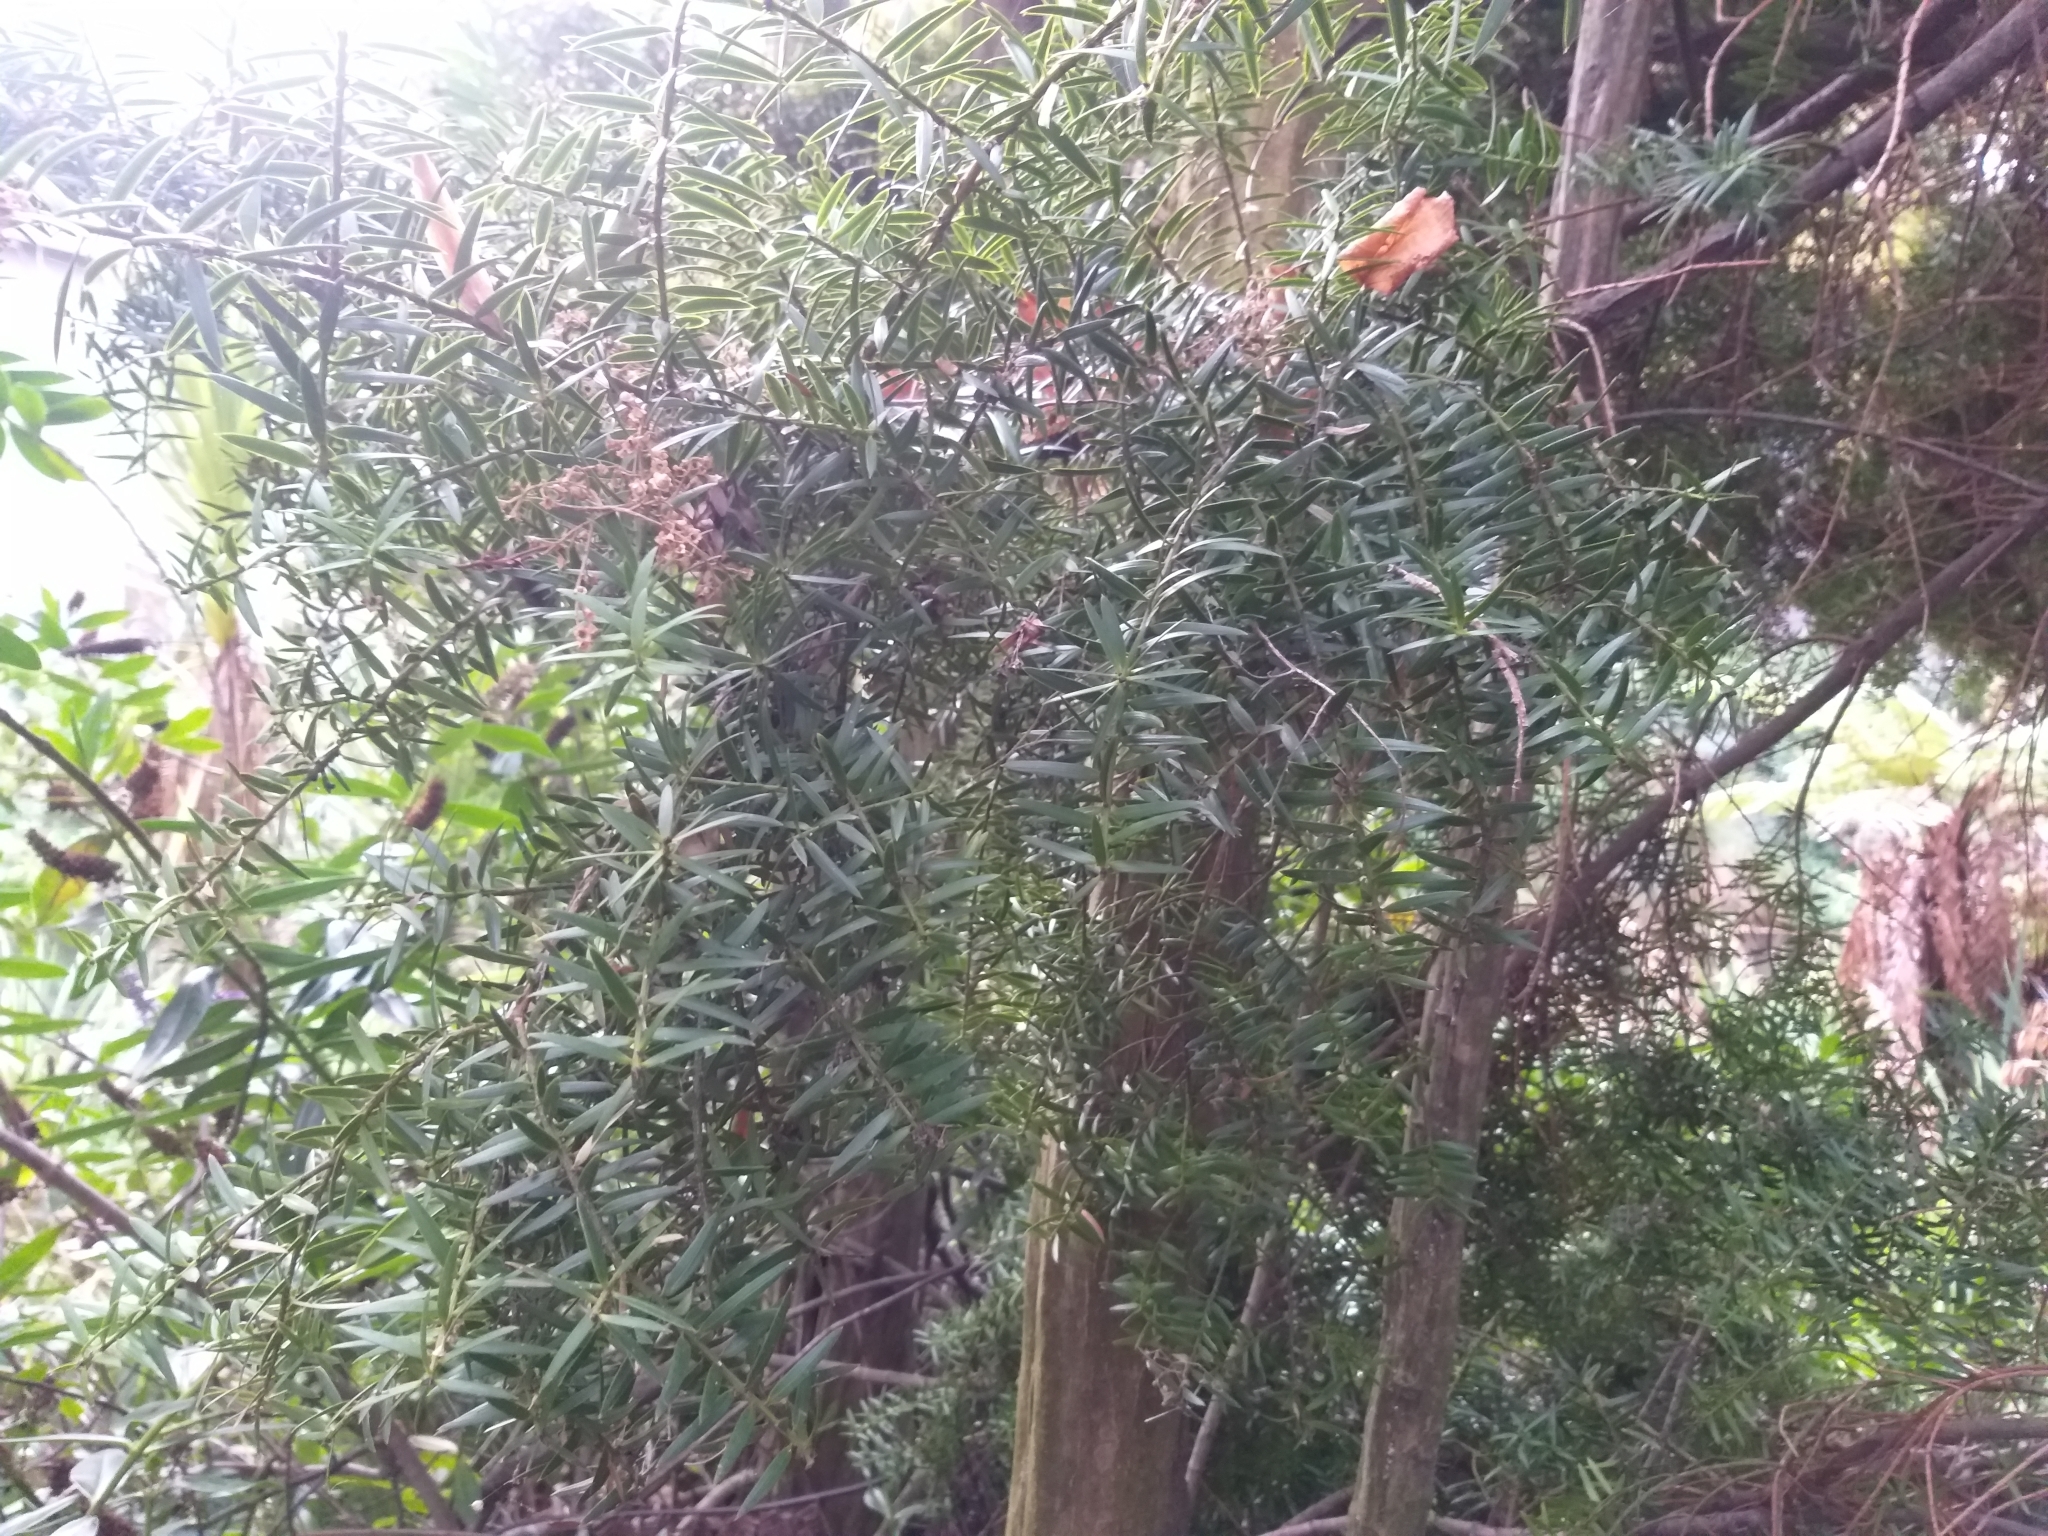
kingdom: Plantae
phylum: Tracheophyta
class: Pinopsida
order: Pinales
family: Podocarpaceae
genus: Podocarpus
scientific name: Podocarpus totara
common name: Totara
